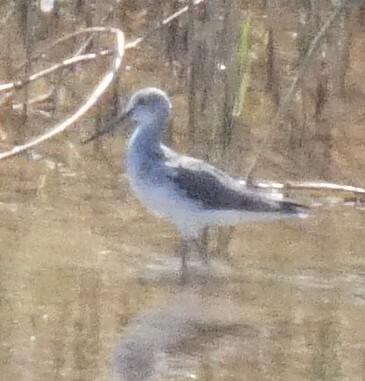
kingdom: Animalia
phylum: Chordata
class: Aves
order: Charadriiformes
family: Scolopacidae
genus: Tringa
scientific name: Tringa nebularia
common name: Common greenshank
